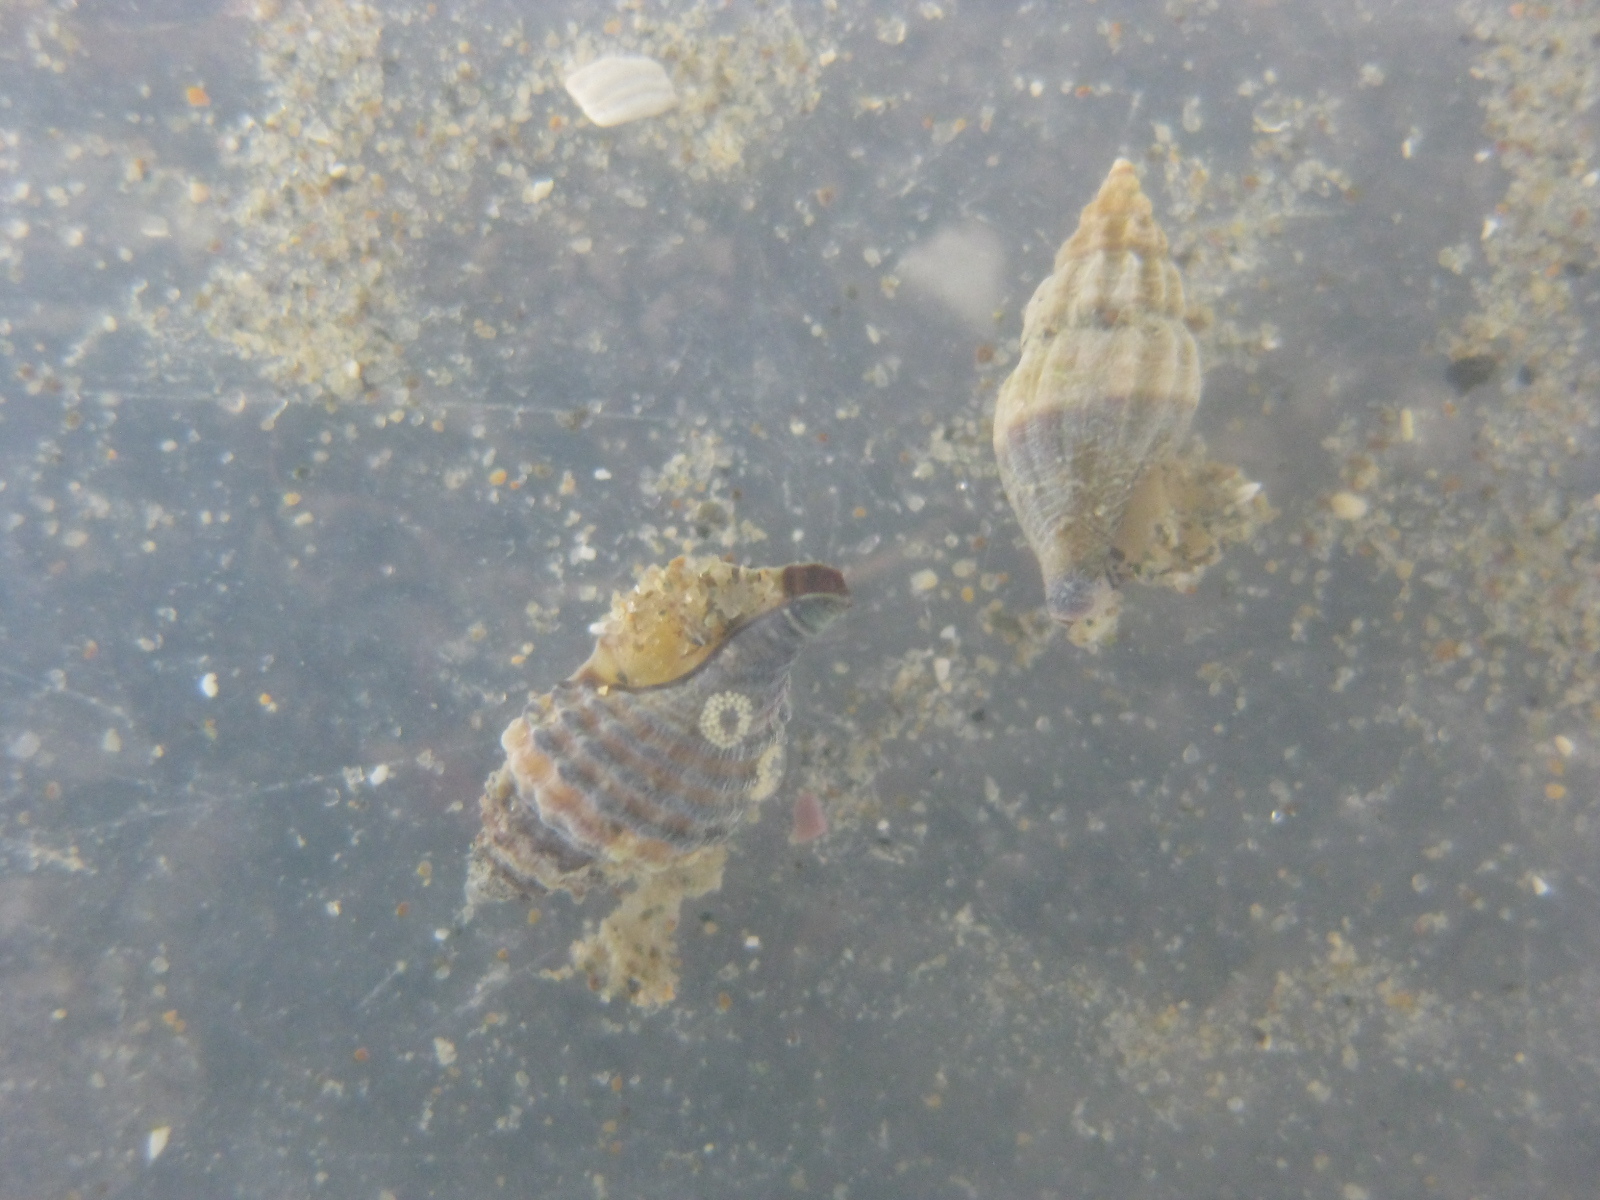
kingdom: Animalia
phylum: Mollusca
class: Gastropoda
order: Neogastropoda
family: Muricidae
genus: Xymene
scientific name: Xymene plebeius
